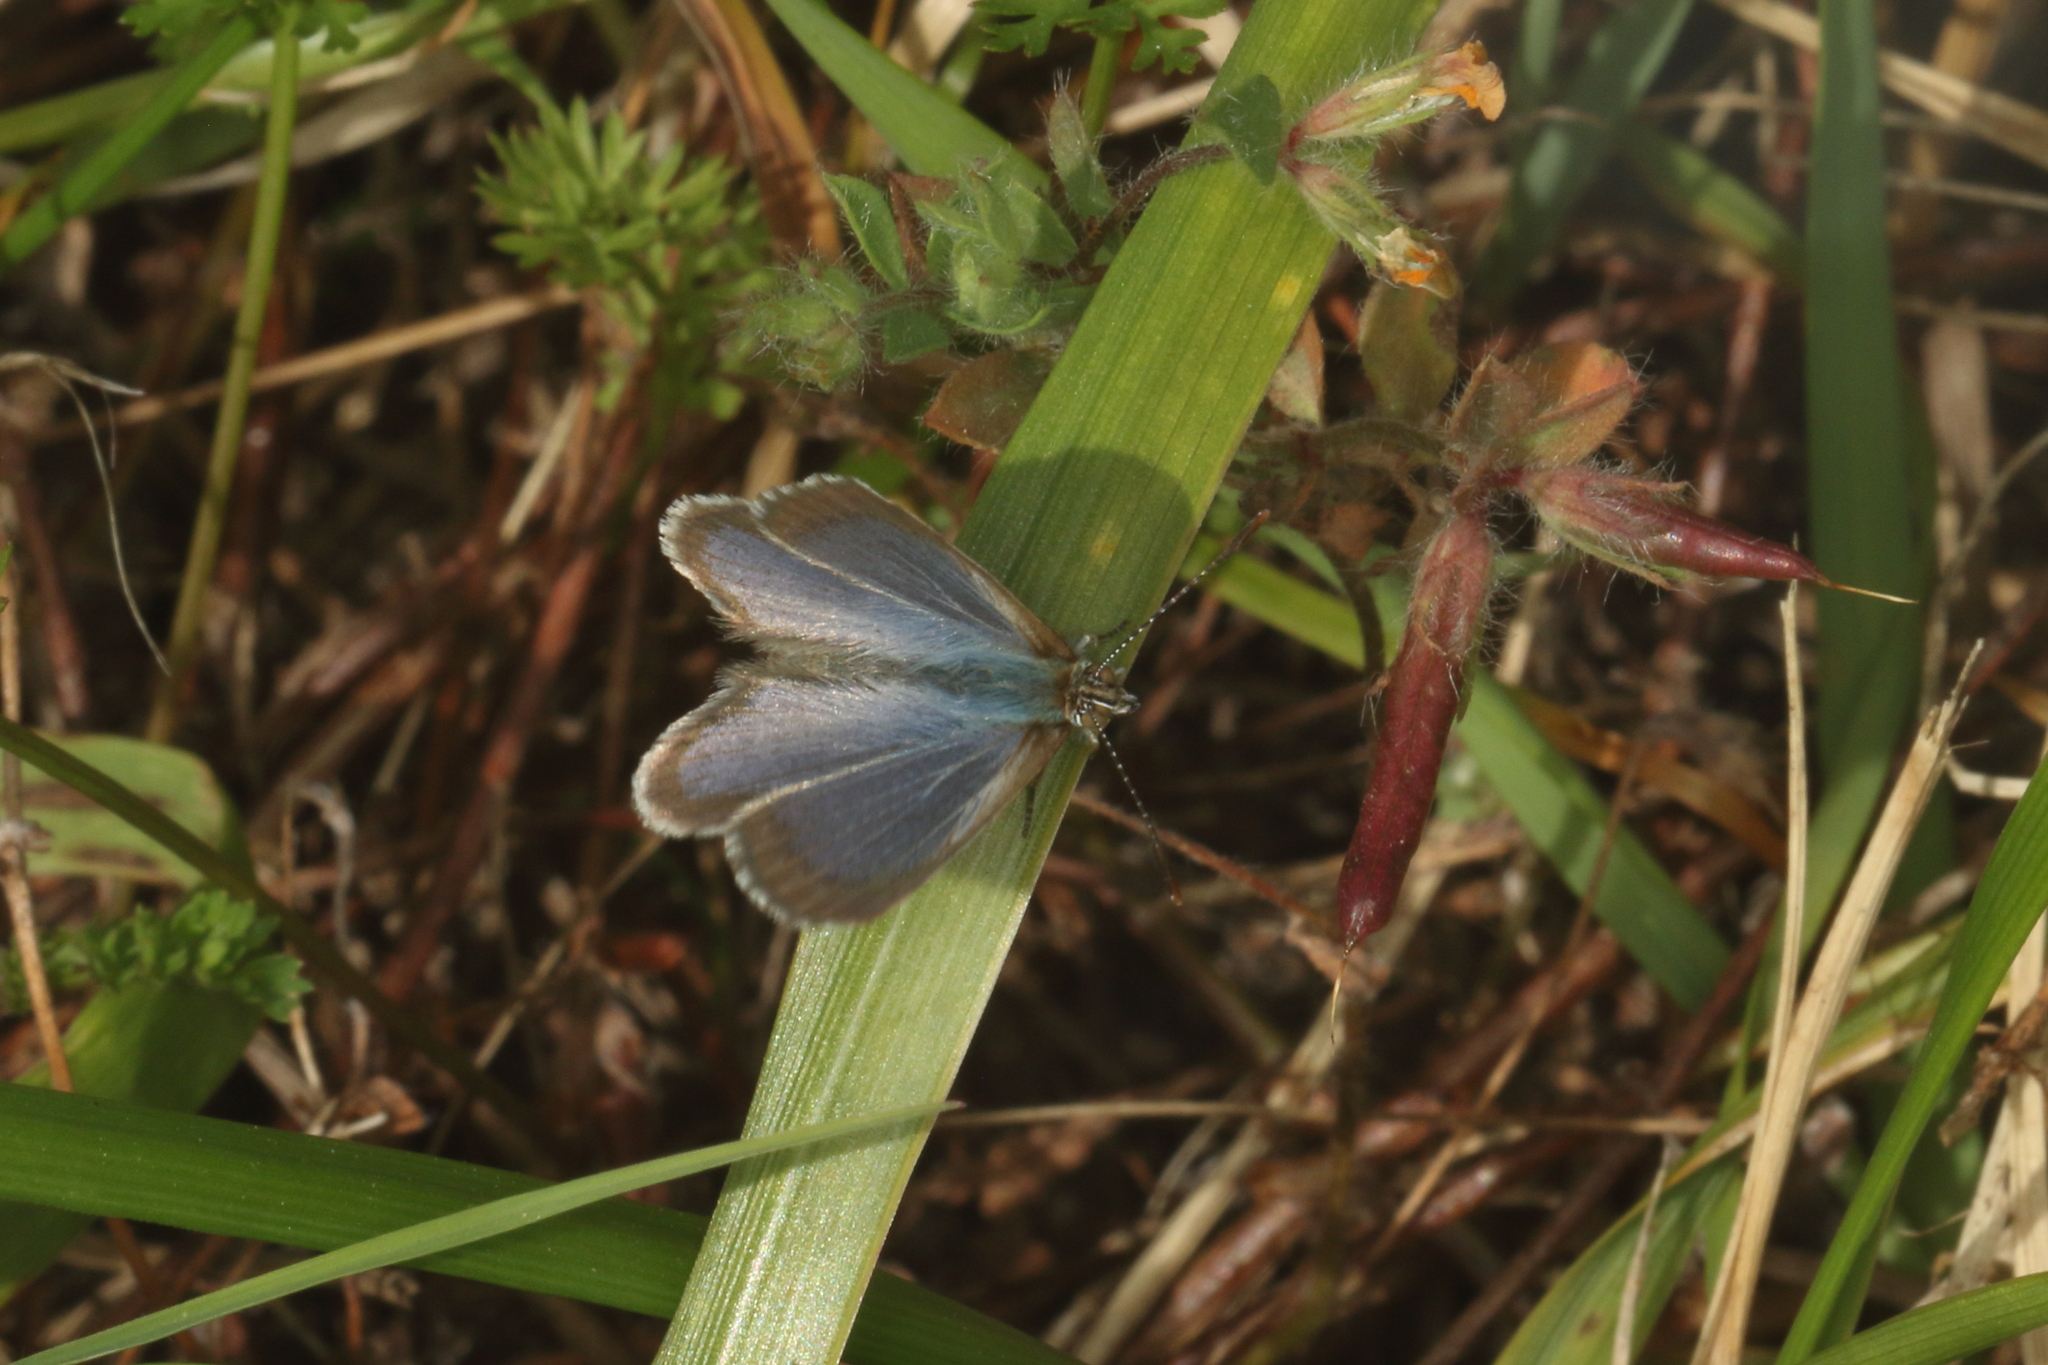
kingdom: Animalia
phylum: Arthropoda
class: Insecta
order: Lepidoptera
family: Lycaenidae
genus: Zizina
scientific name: Zizina otis
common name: Lesser grass blue
